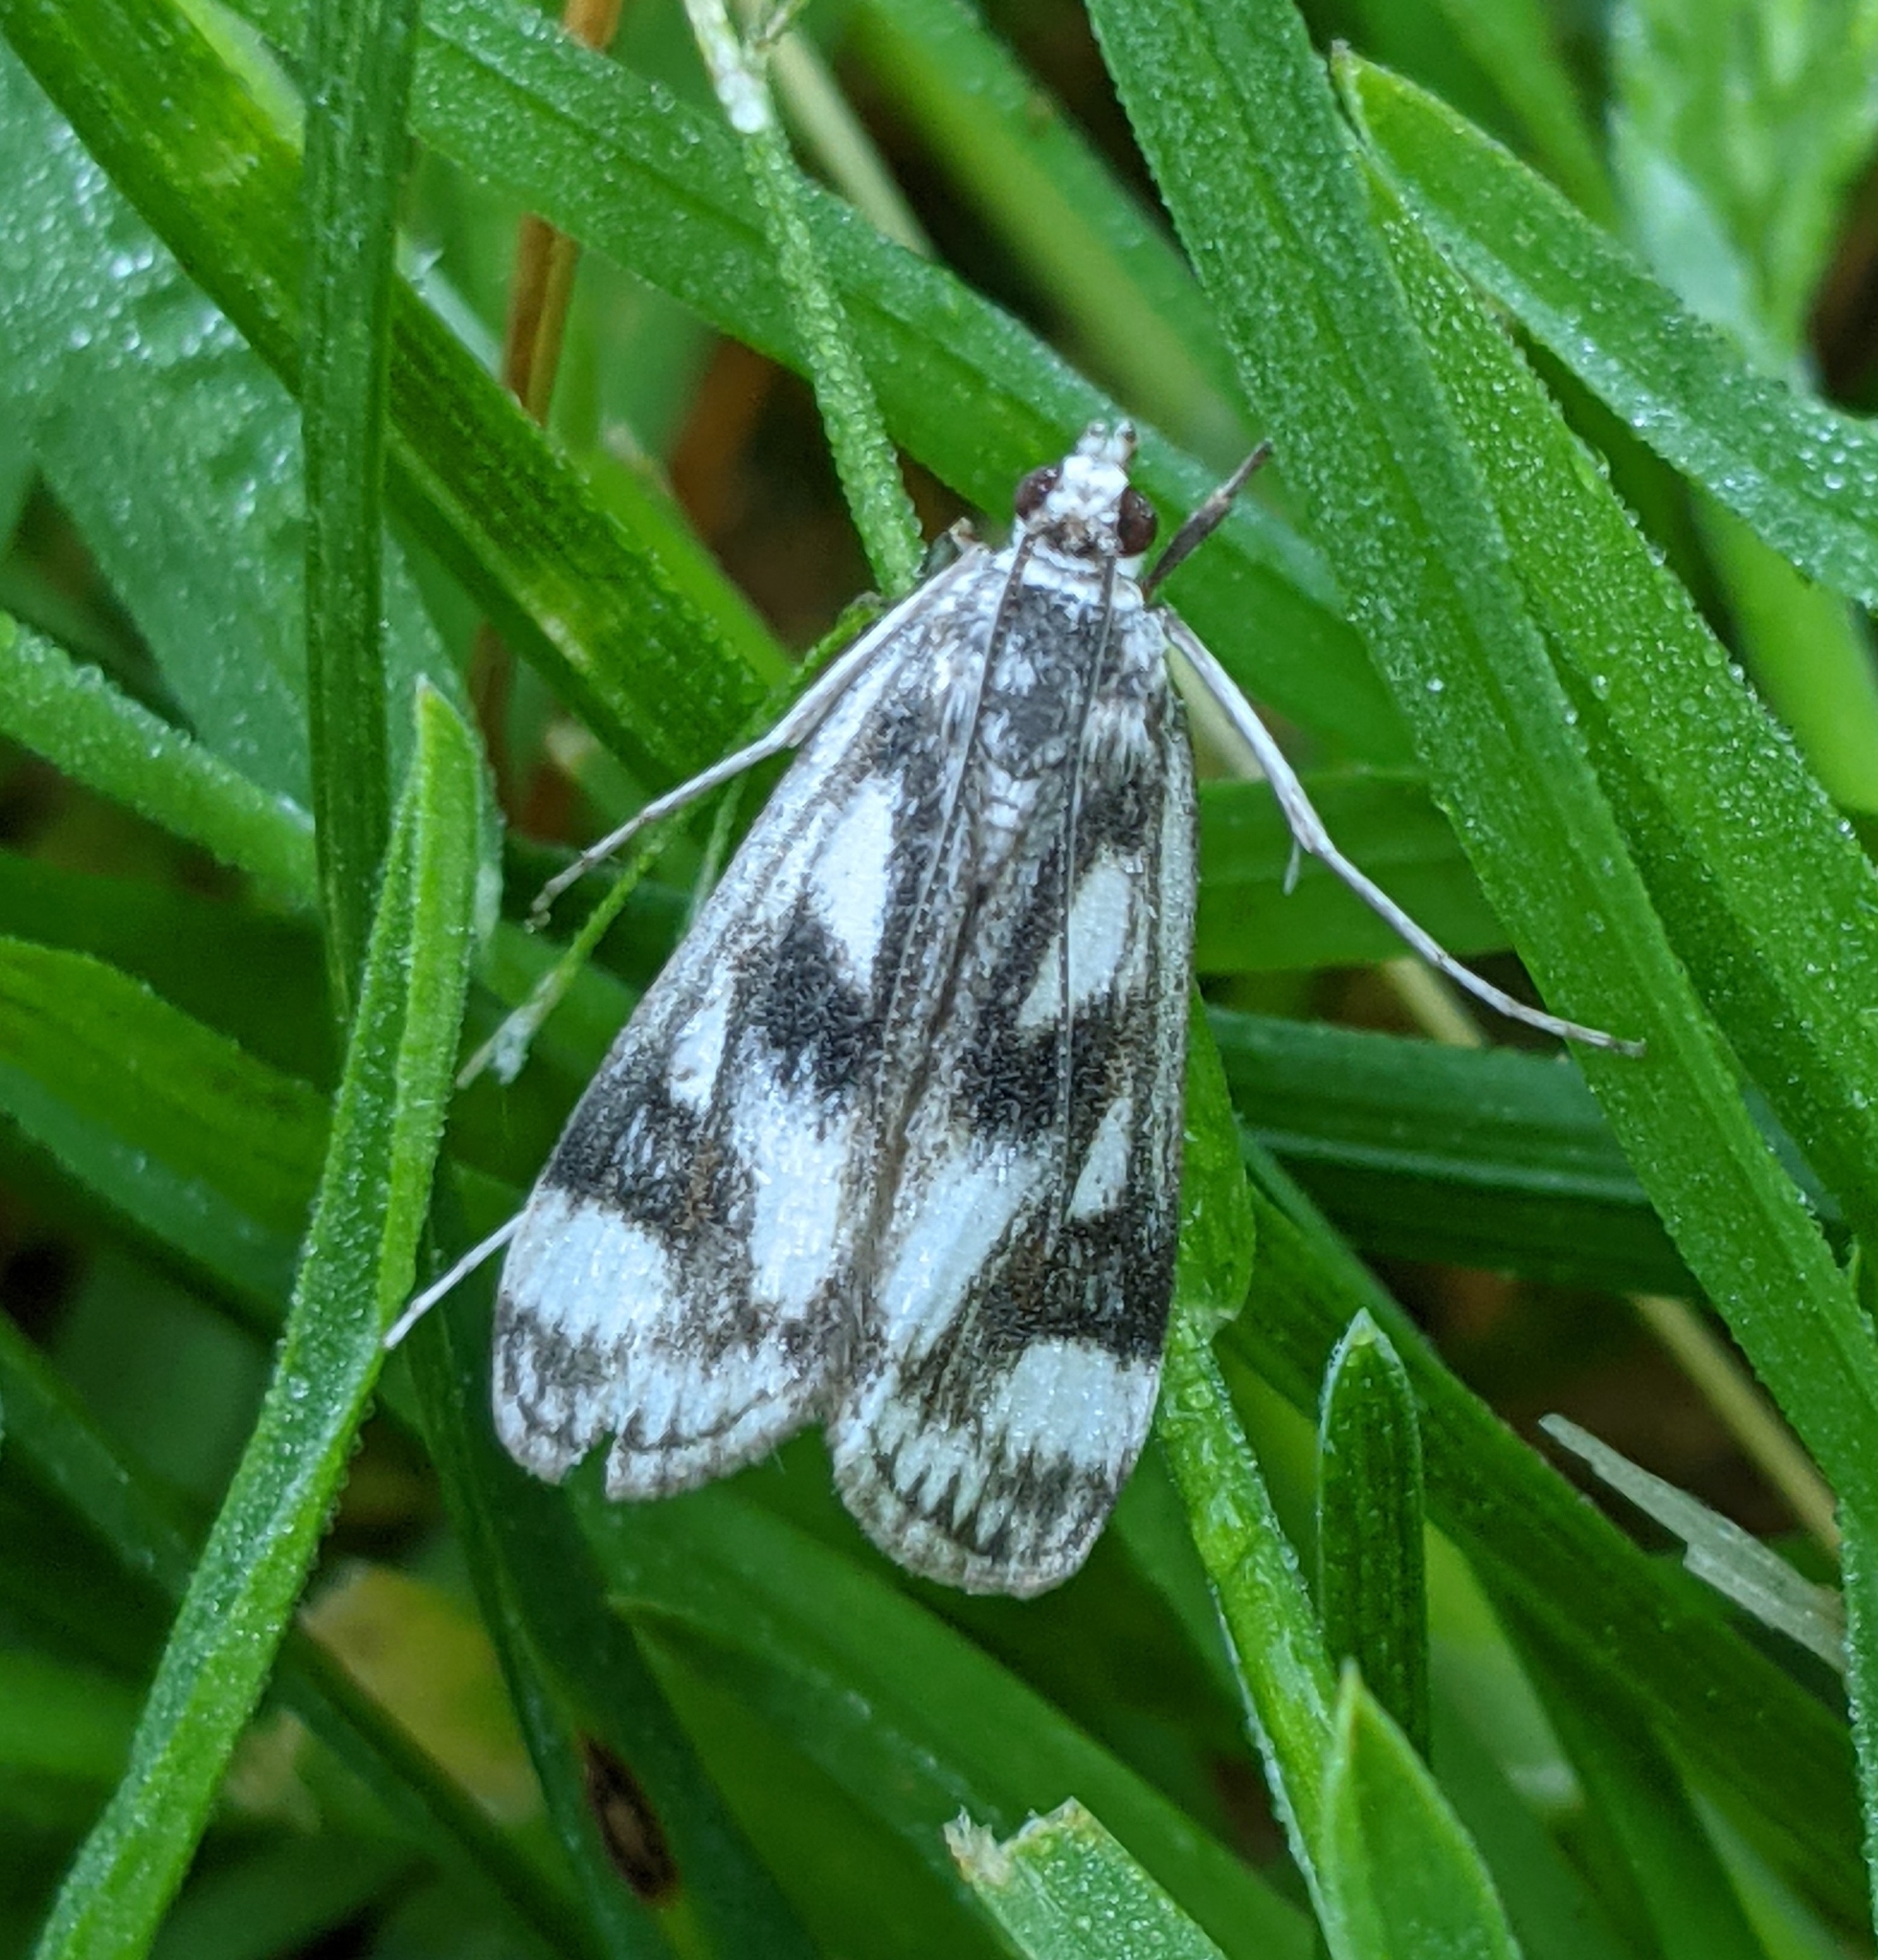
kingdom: Animalia
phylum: Arthropoda
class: Insecta
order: Lepidoptera
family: Crambidae
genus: Parapoynx
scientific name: Parapoynx maculalis
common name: Polymorphic pondweed moth
